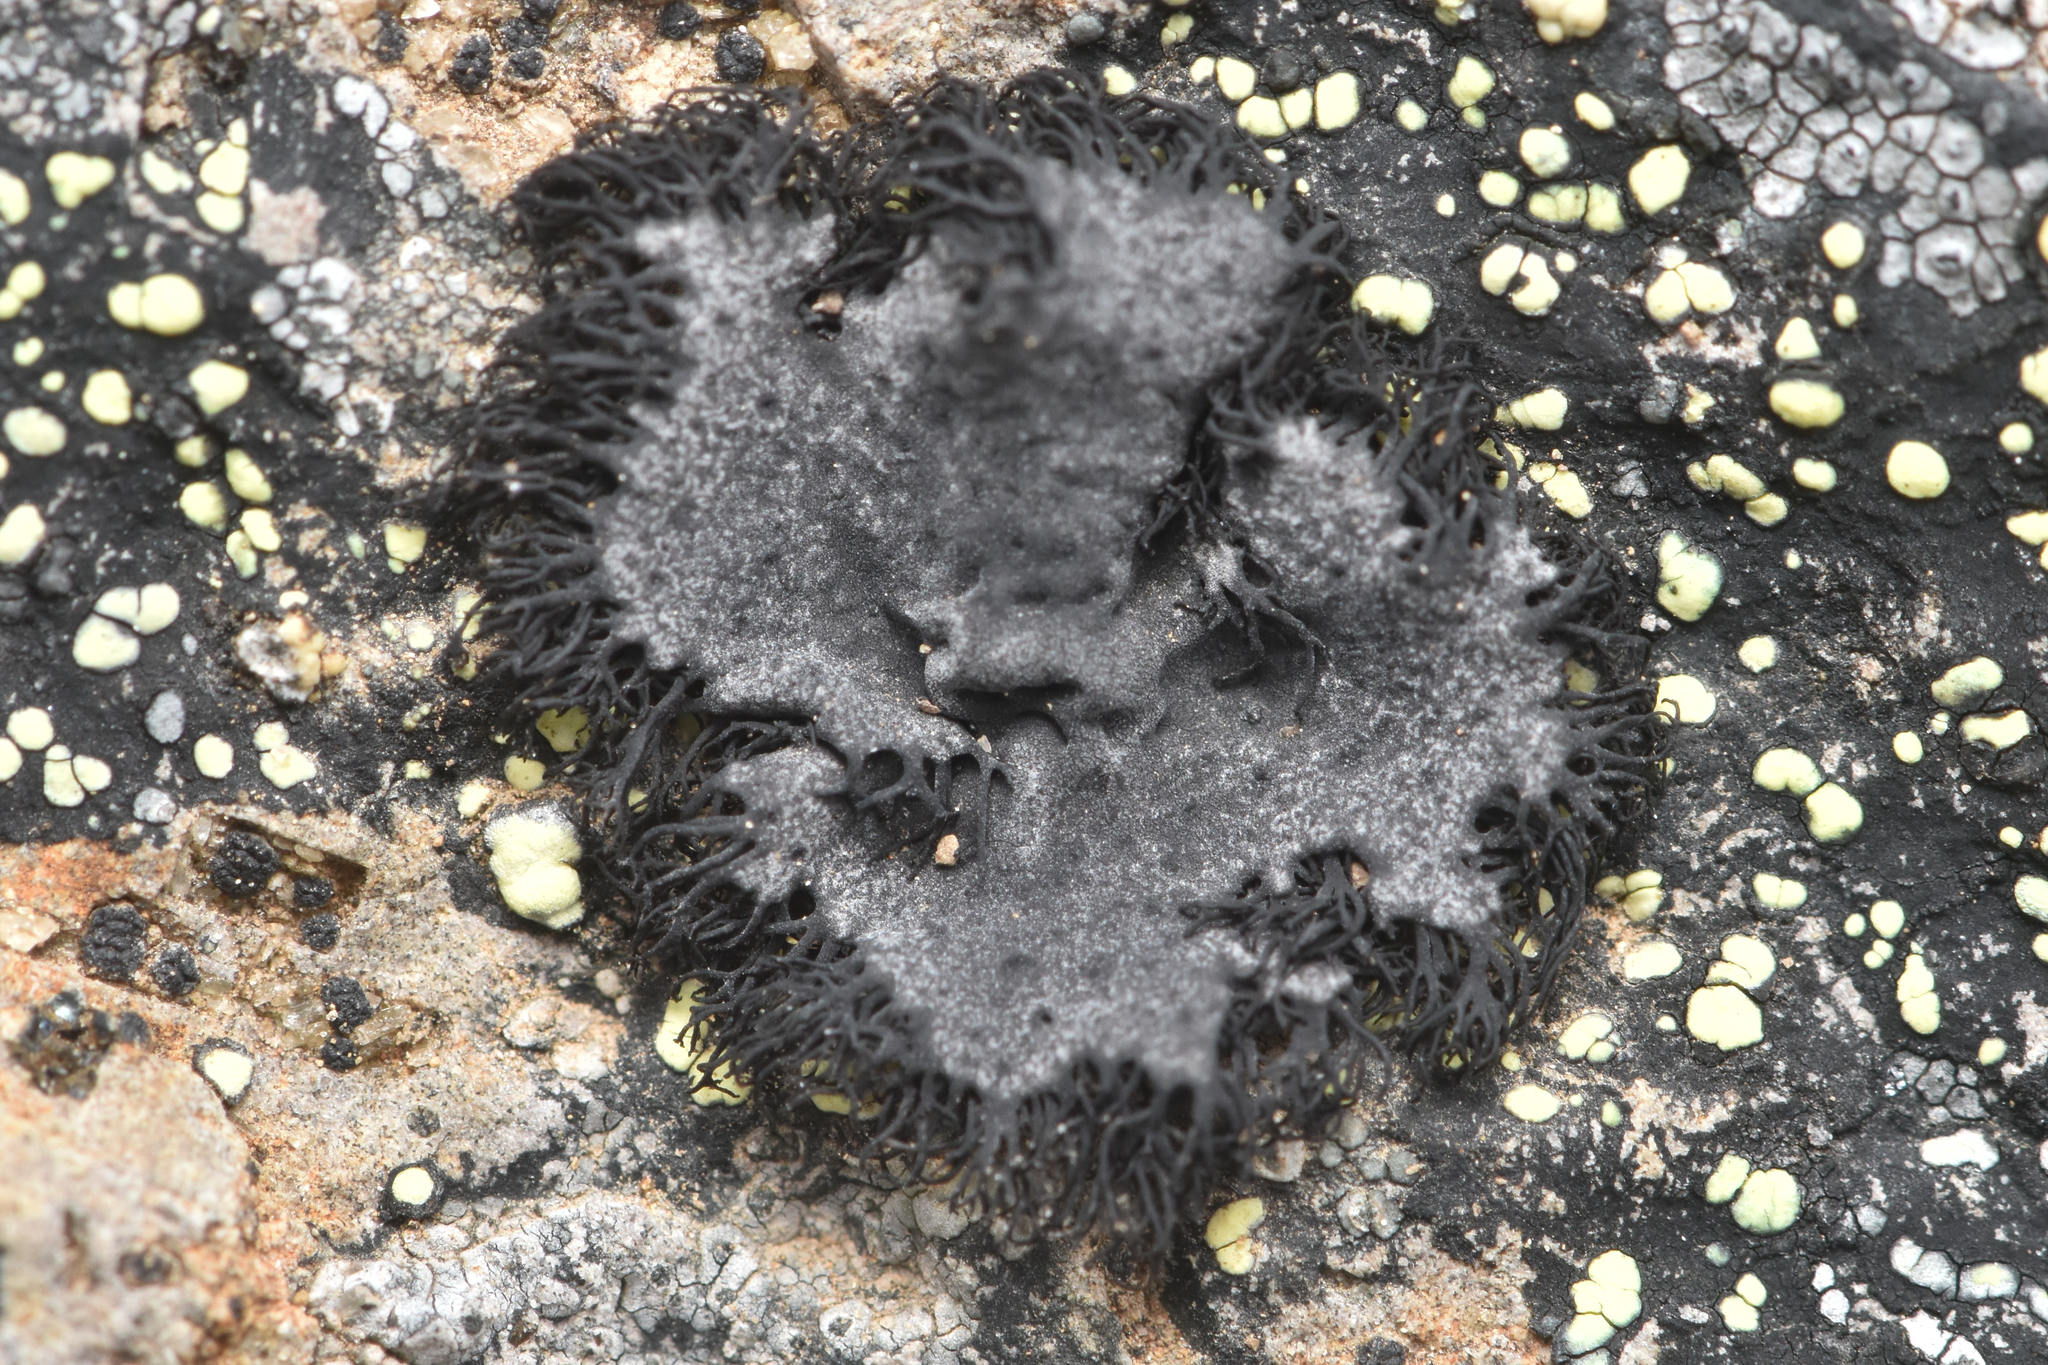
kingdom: Fungi
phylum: Ascomycota
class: Lecanoromycetes
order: Umbilicariales
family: Umbilicariaceae
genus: Umbilicaria
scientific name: Umbilicaria cylindrica
